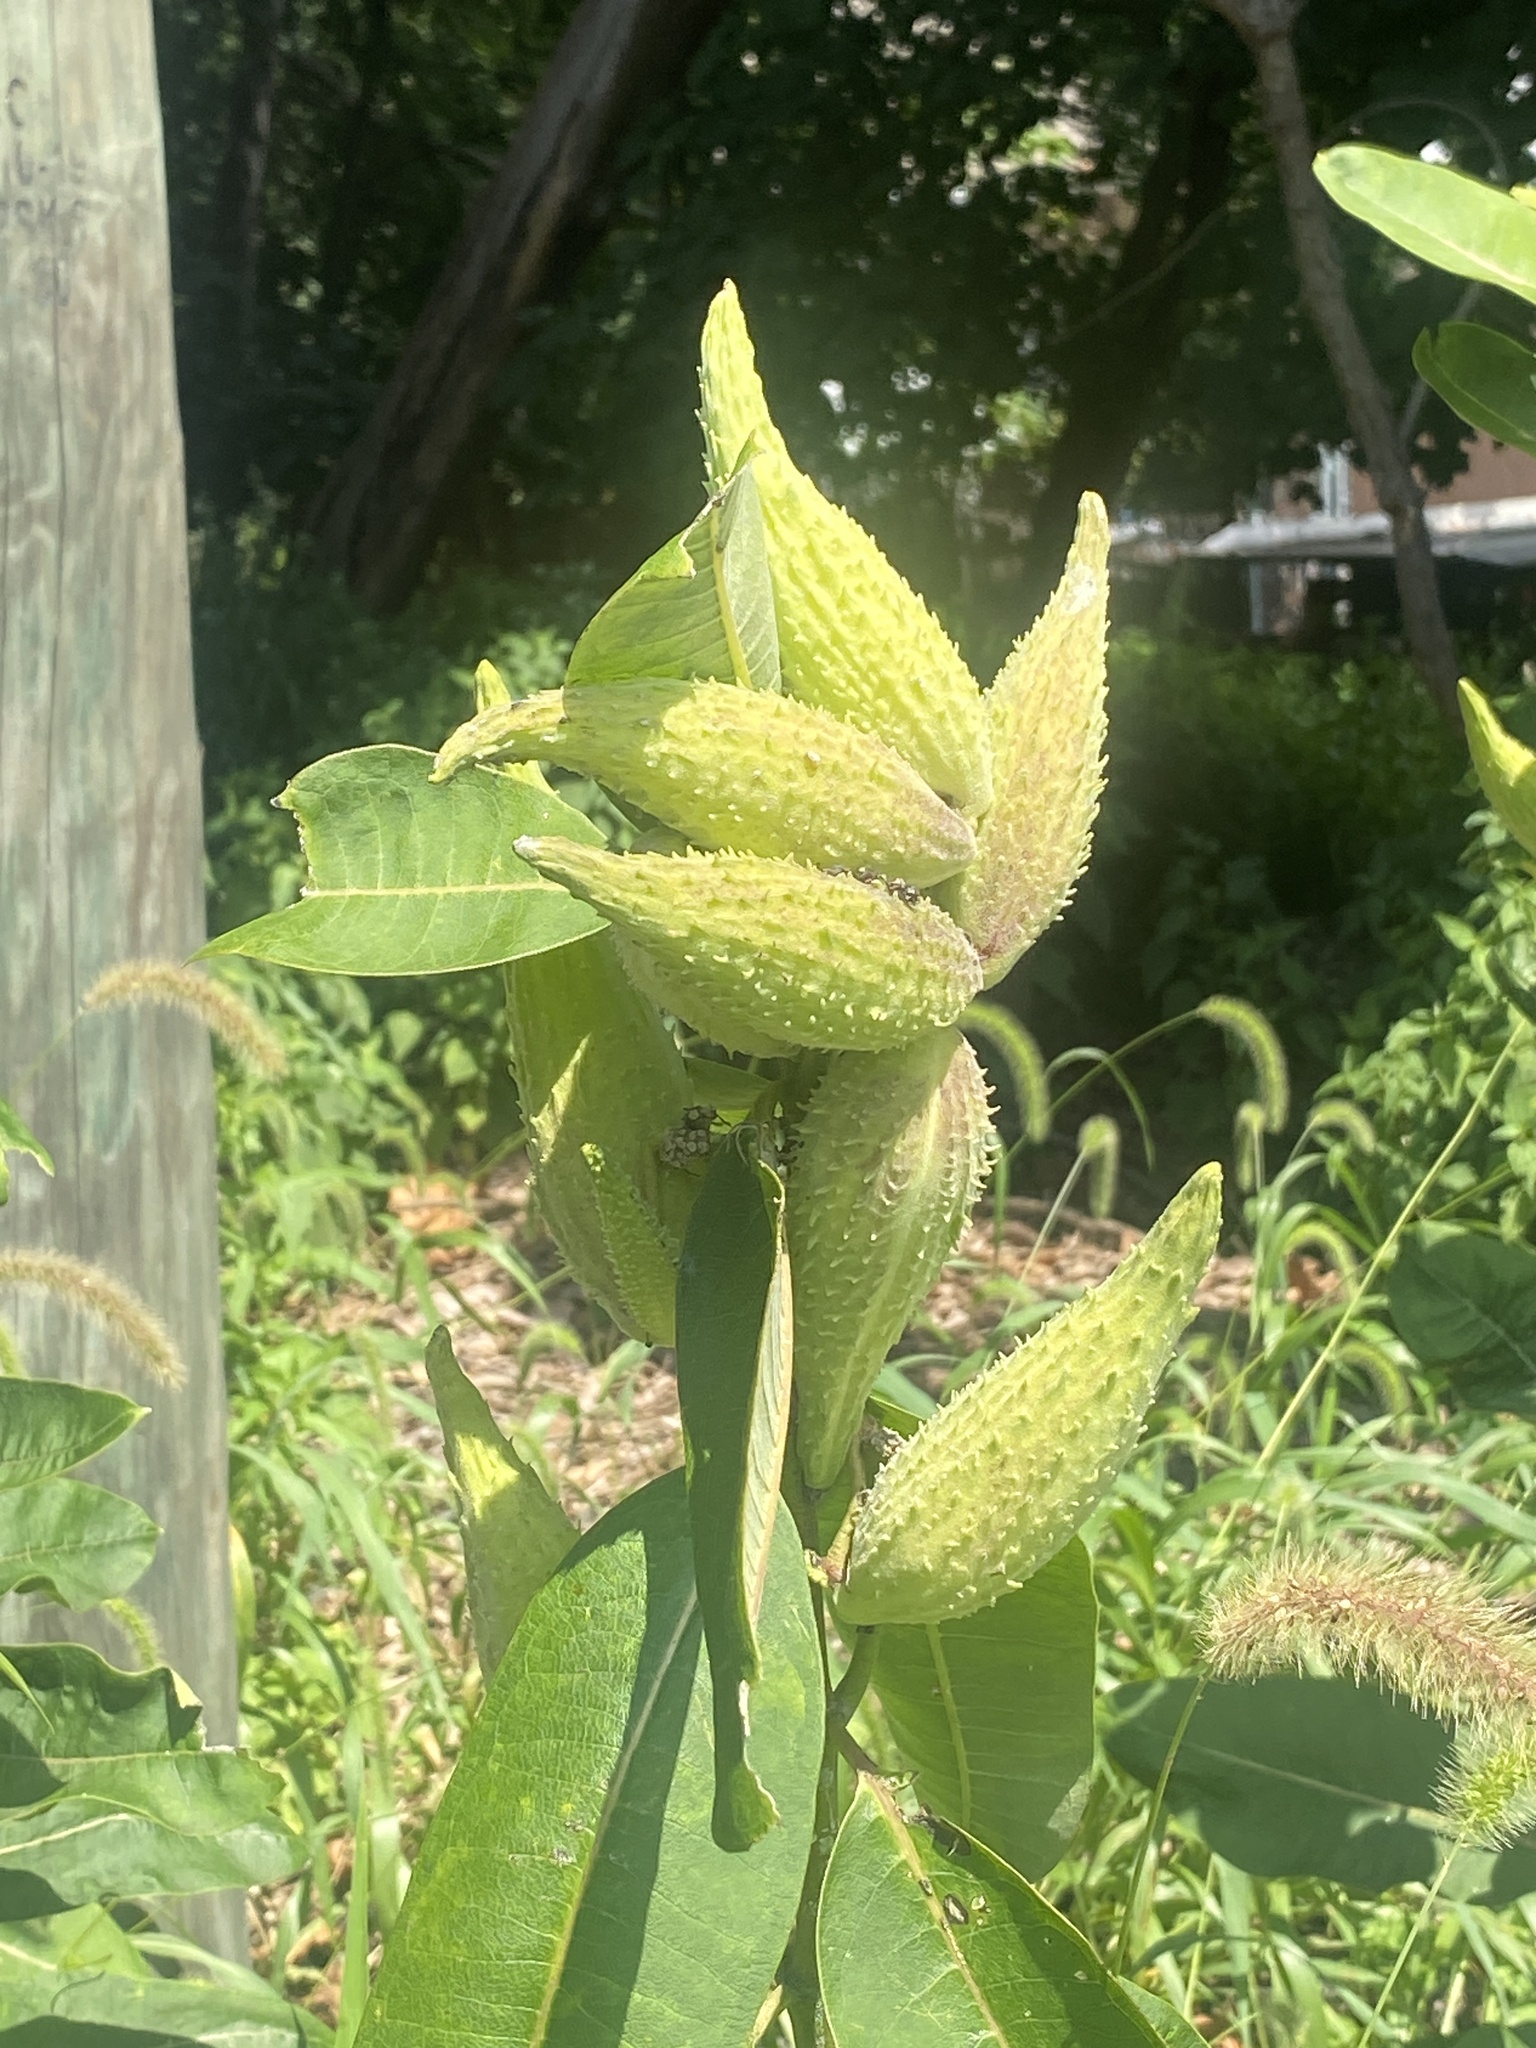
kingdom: Plantae
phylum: Tracheophyta
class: Magnoliopsida
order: Gentianales
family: Apocynaceae
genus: Asclepias
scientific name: Asclepias syriaca
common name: Common milkweed
